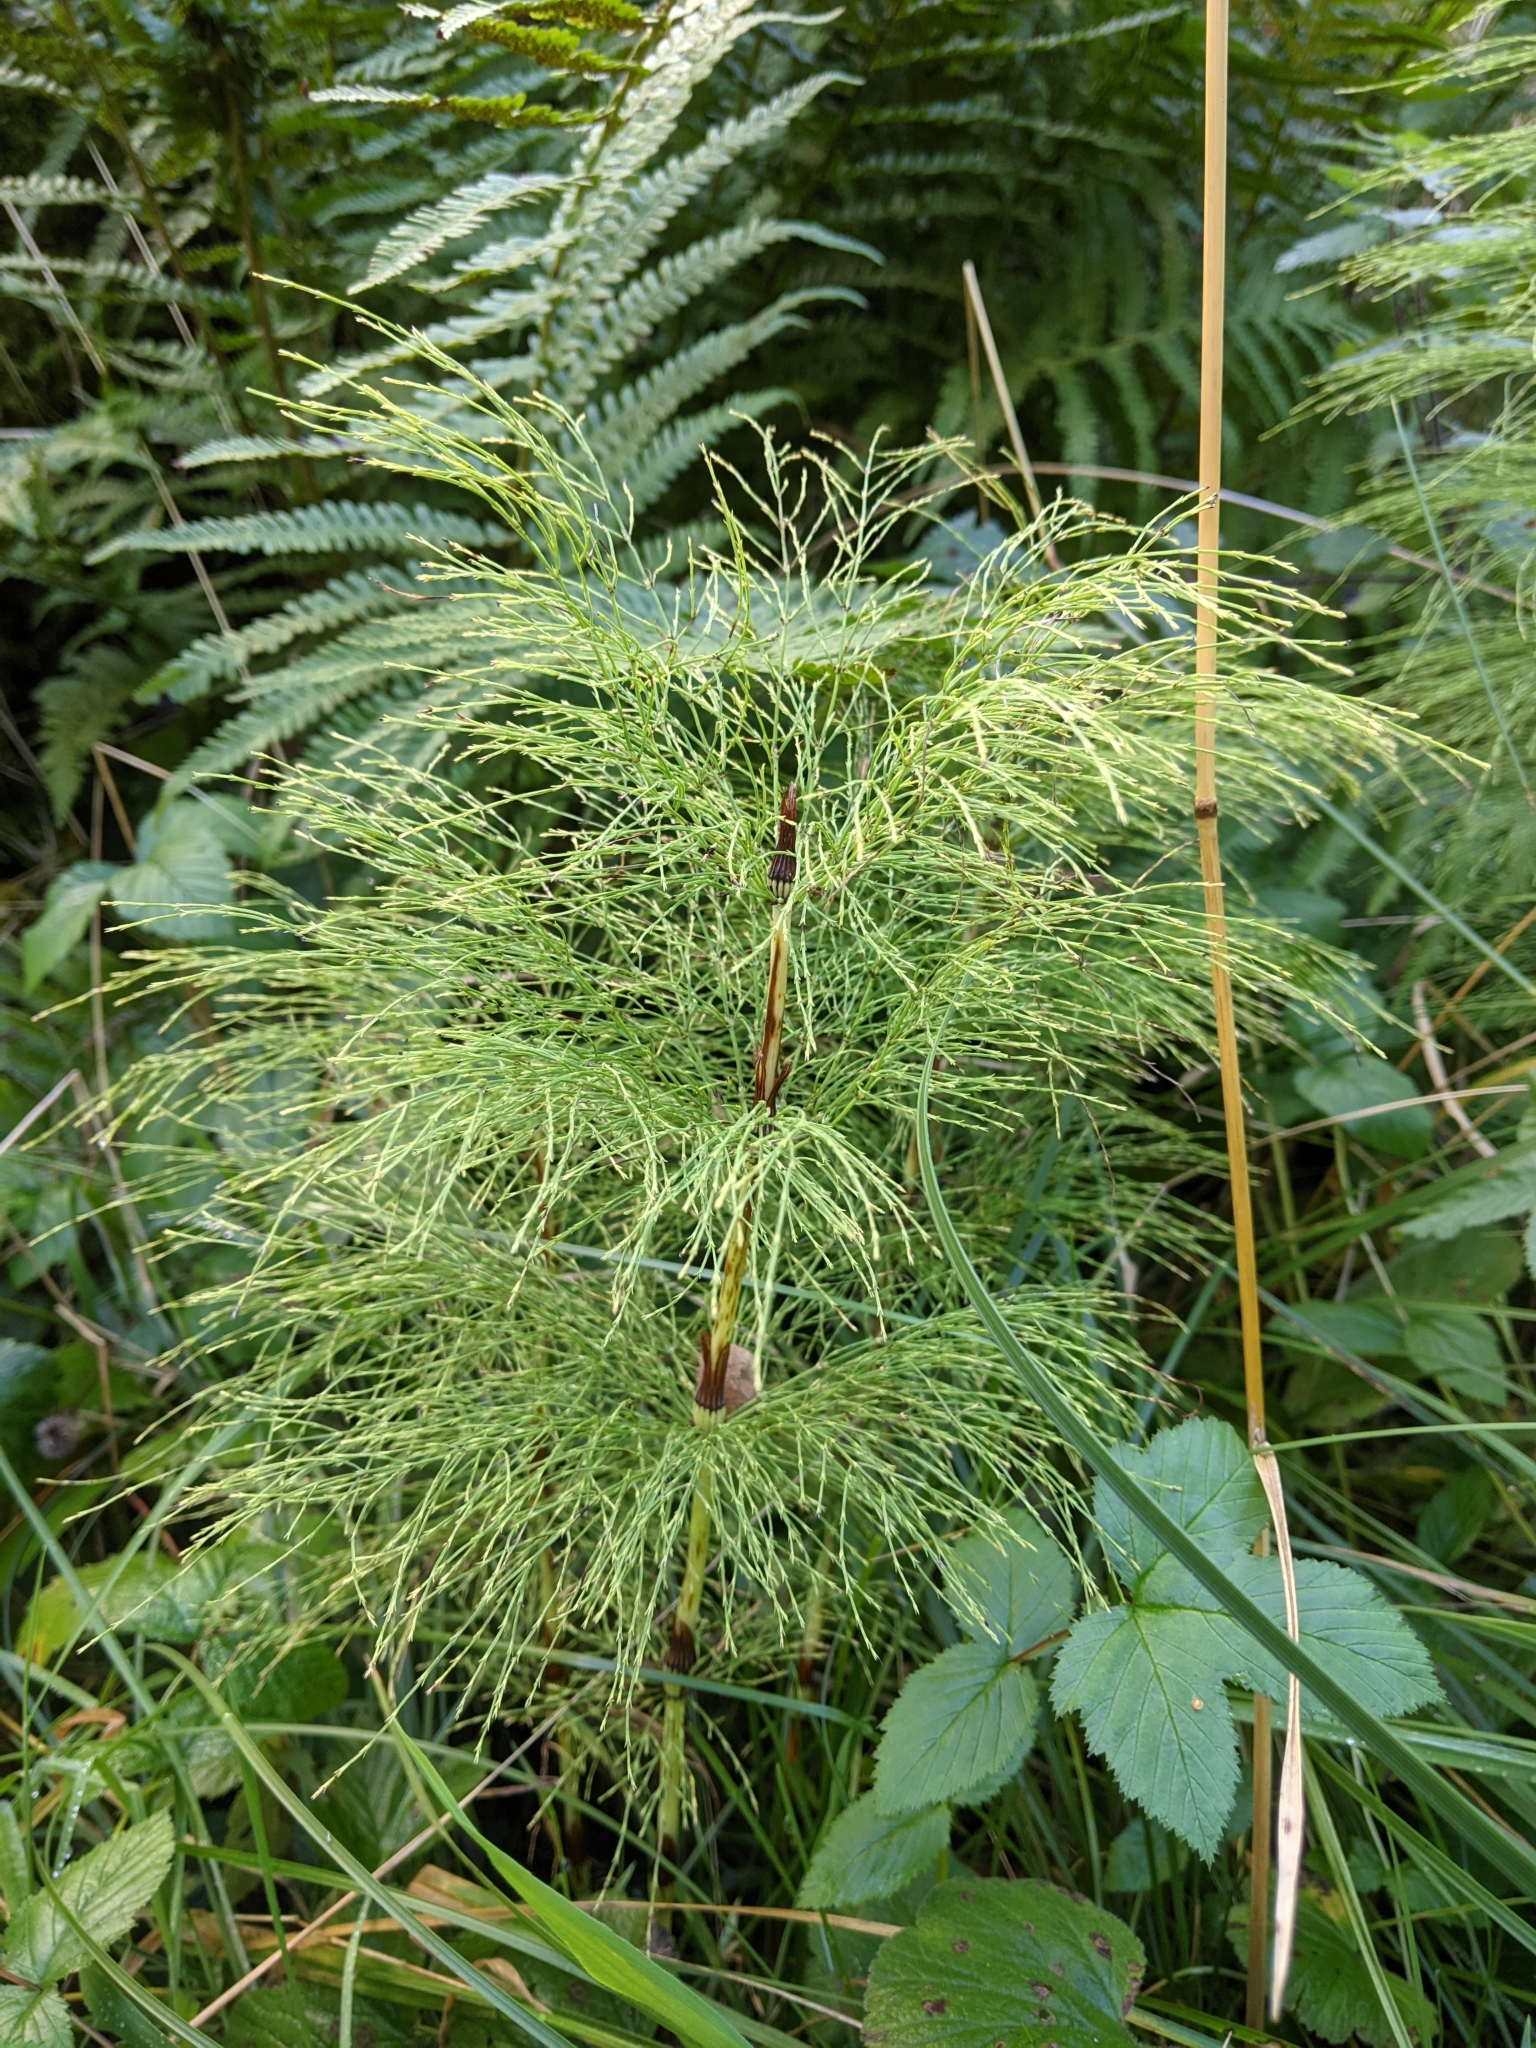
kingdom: Plantae
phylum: Tracheophyta
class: Polypodiopsida
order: Equisetales
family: Equisetaceae
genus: Equisetum
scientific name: Equisetum sylvaticum
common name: Wood horsetail
